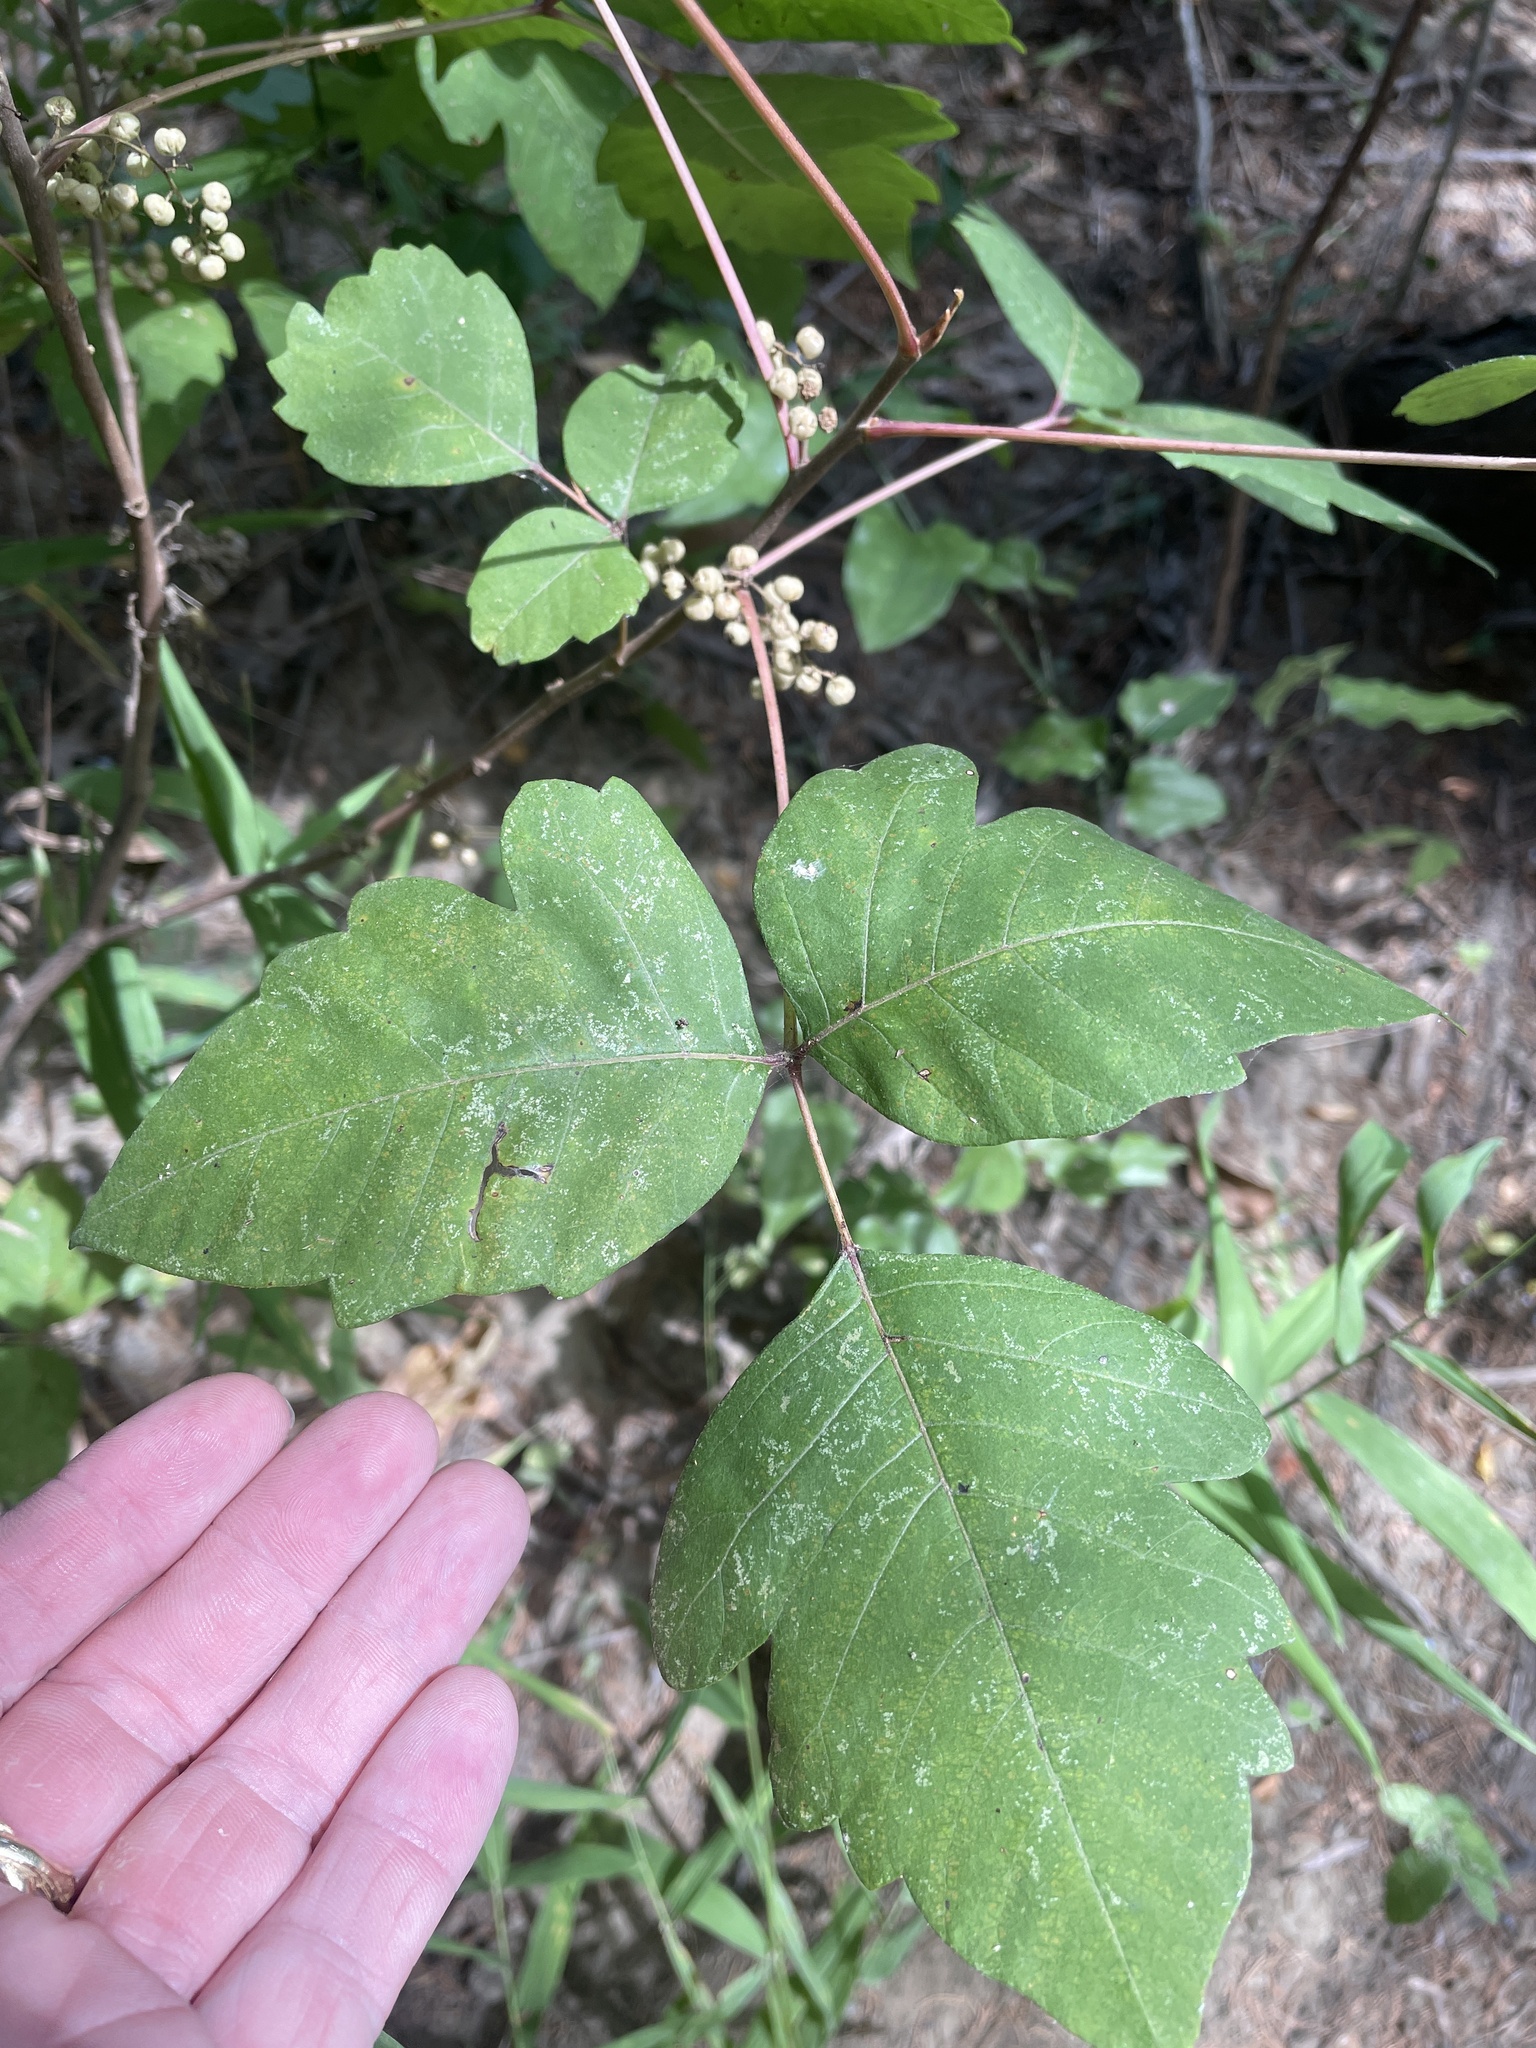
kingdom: Plantae
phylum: Tracheophyta
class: Magnoliopsida
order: Sapindales
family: Anacardiaceae
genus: Toxicodendron
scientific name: Toxicodendron radicans
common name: Poison ivy
